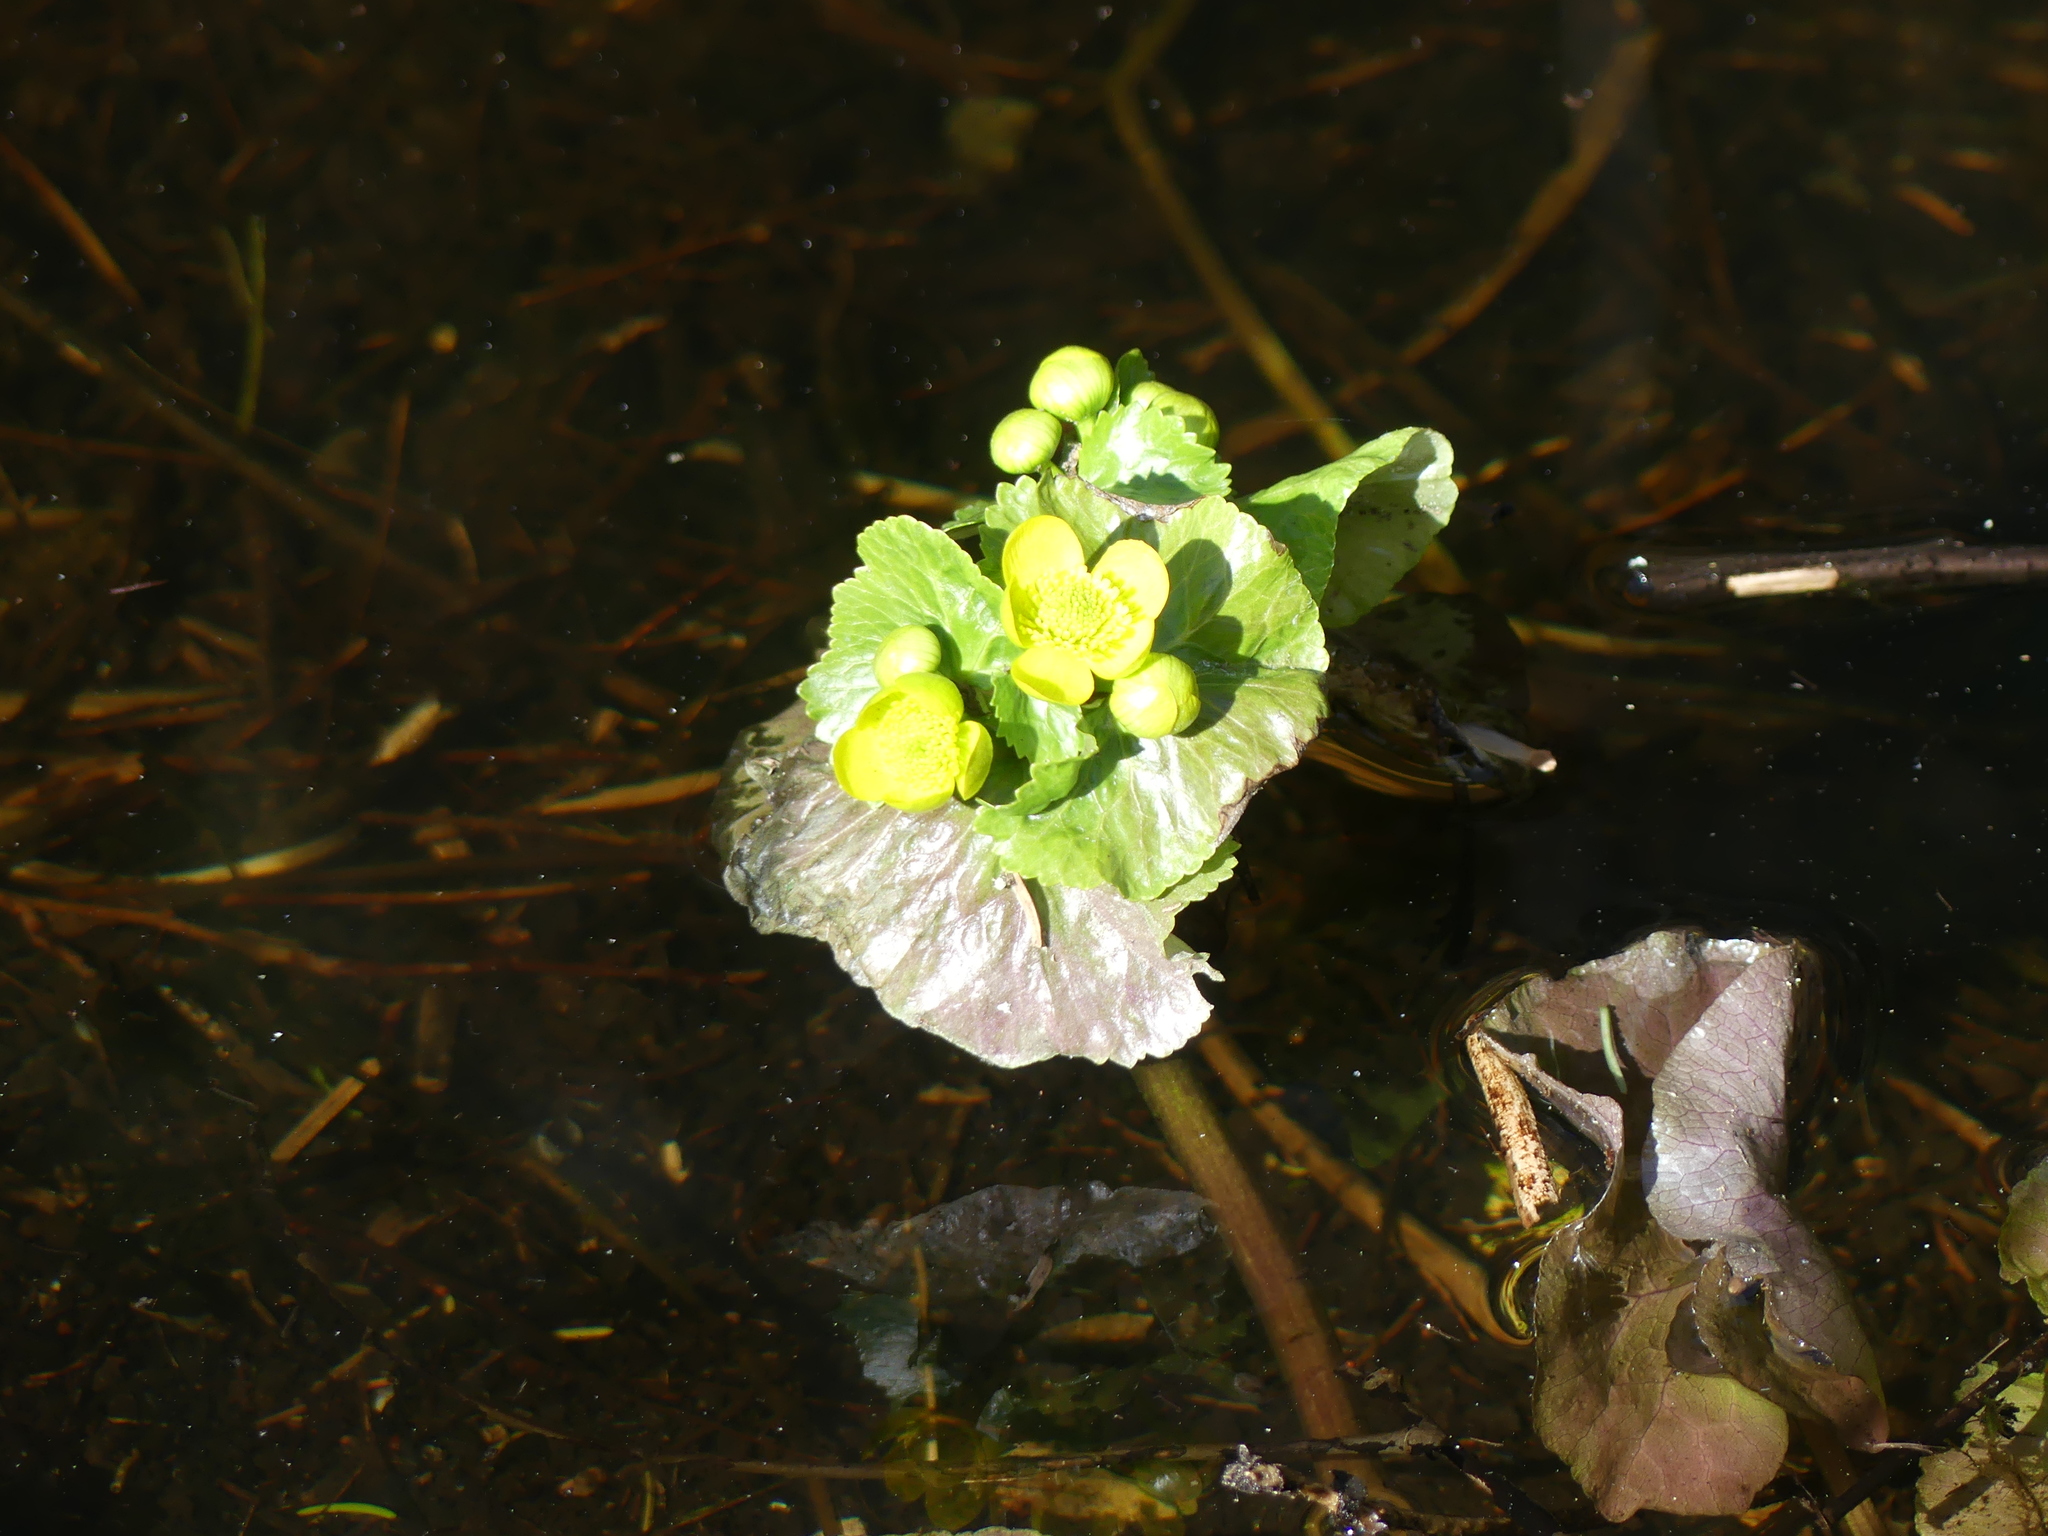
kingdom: Plantae
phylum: Tracheophyta
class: Magnoliopsida
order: Ranunculales
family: Ranunculaceae
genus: Caltha
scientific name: Caltha palustris
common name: Marsh marigold
